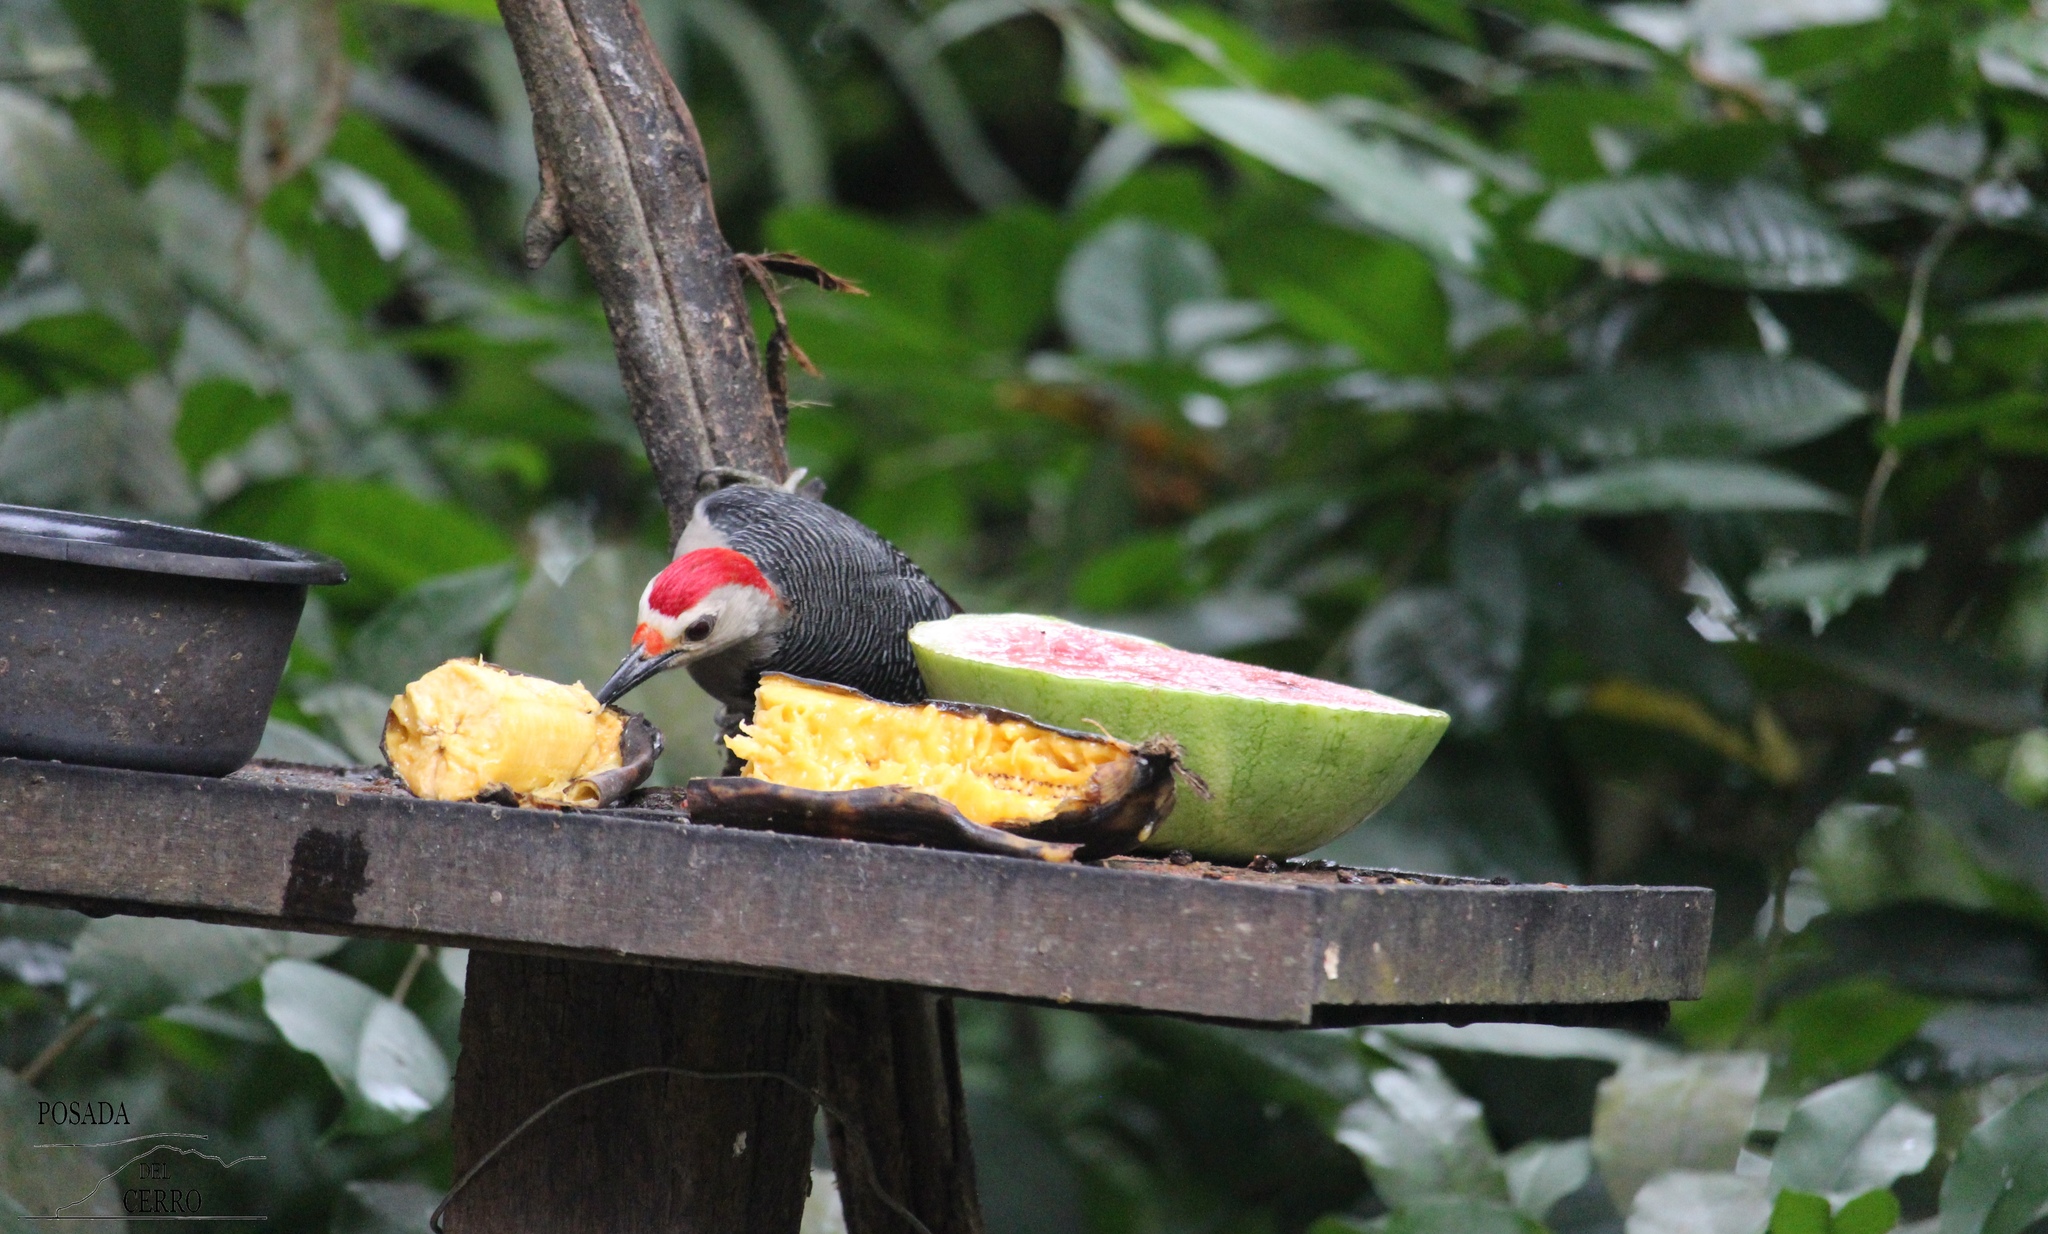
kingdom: Animalia
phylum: Chordata
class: Aves
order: Piciformes
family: Picidae
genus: Melanerpes
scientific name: Melanerpes aurifrons
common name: Golden-fronted woodpecker
